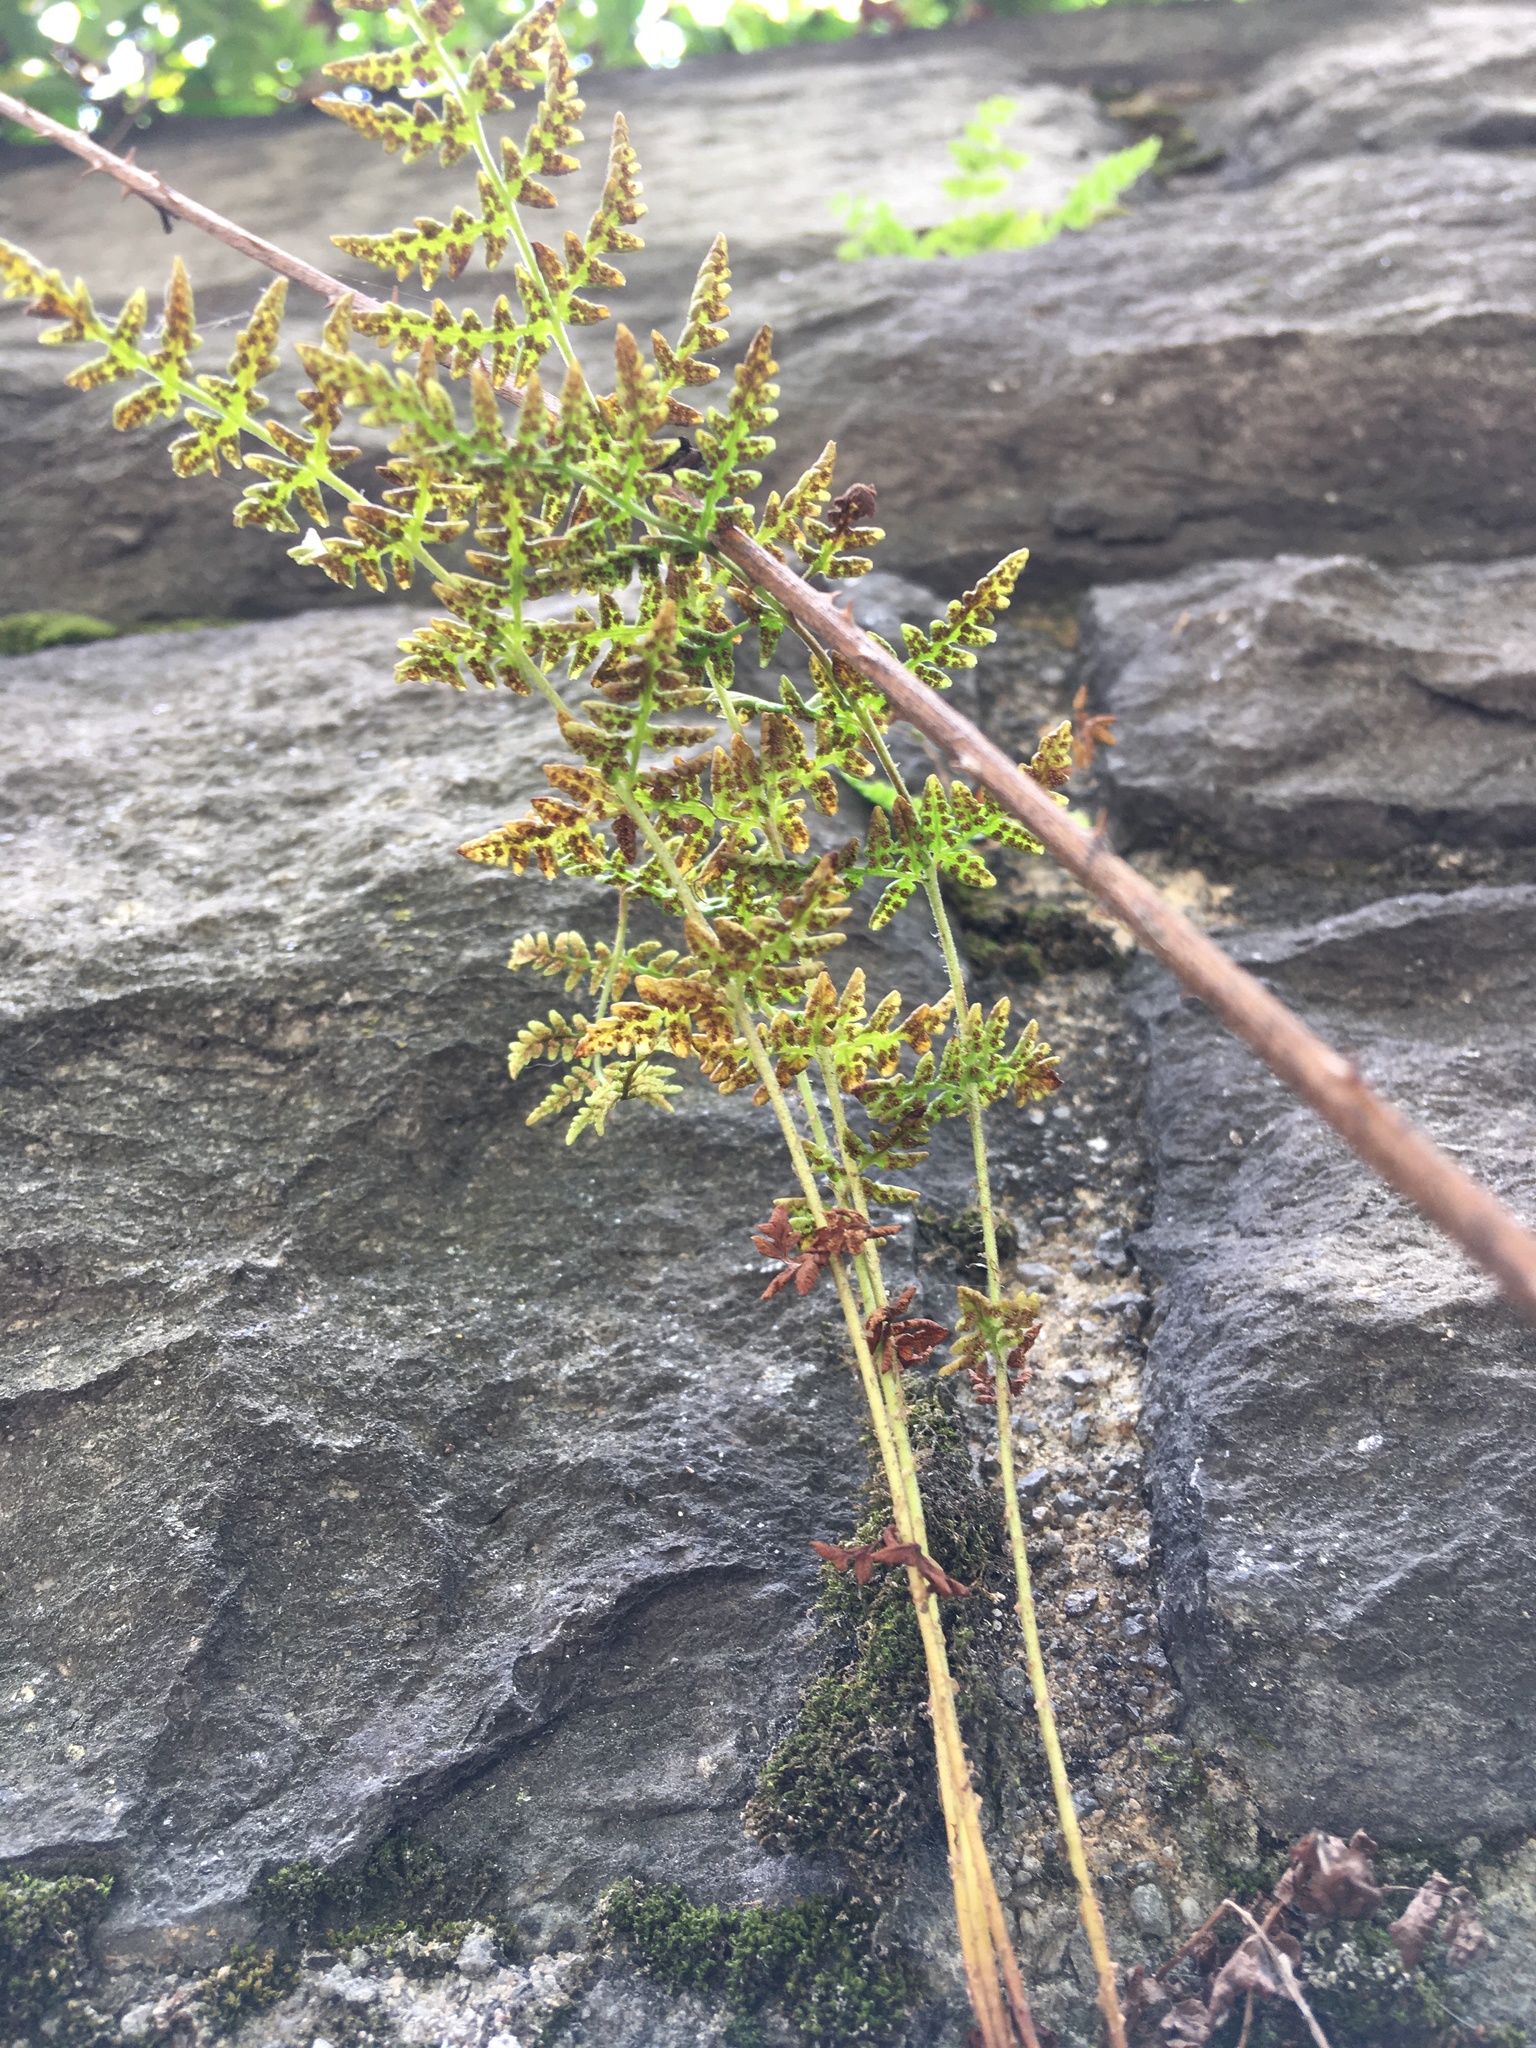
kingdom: Plantae
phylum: Tracheophyta
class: Polypodiopsida
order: Polypodiales
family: Woodsiaceae
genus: Physematium
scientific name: Physematium obtusum
